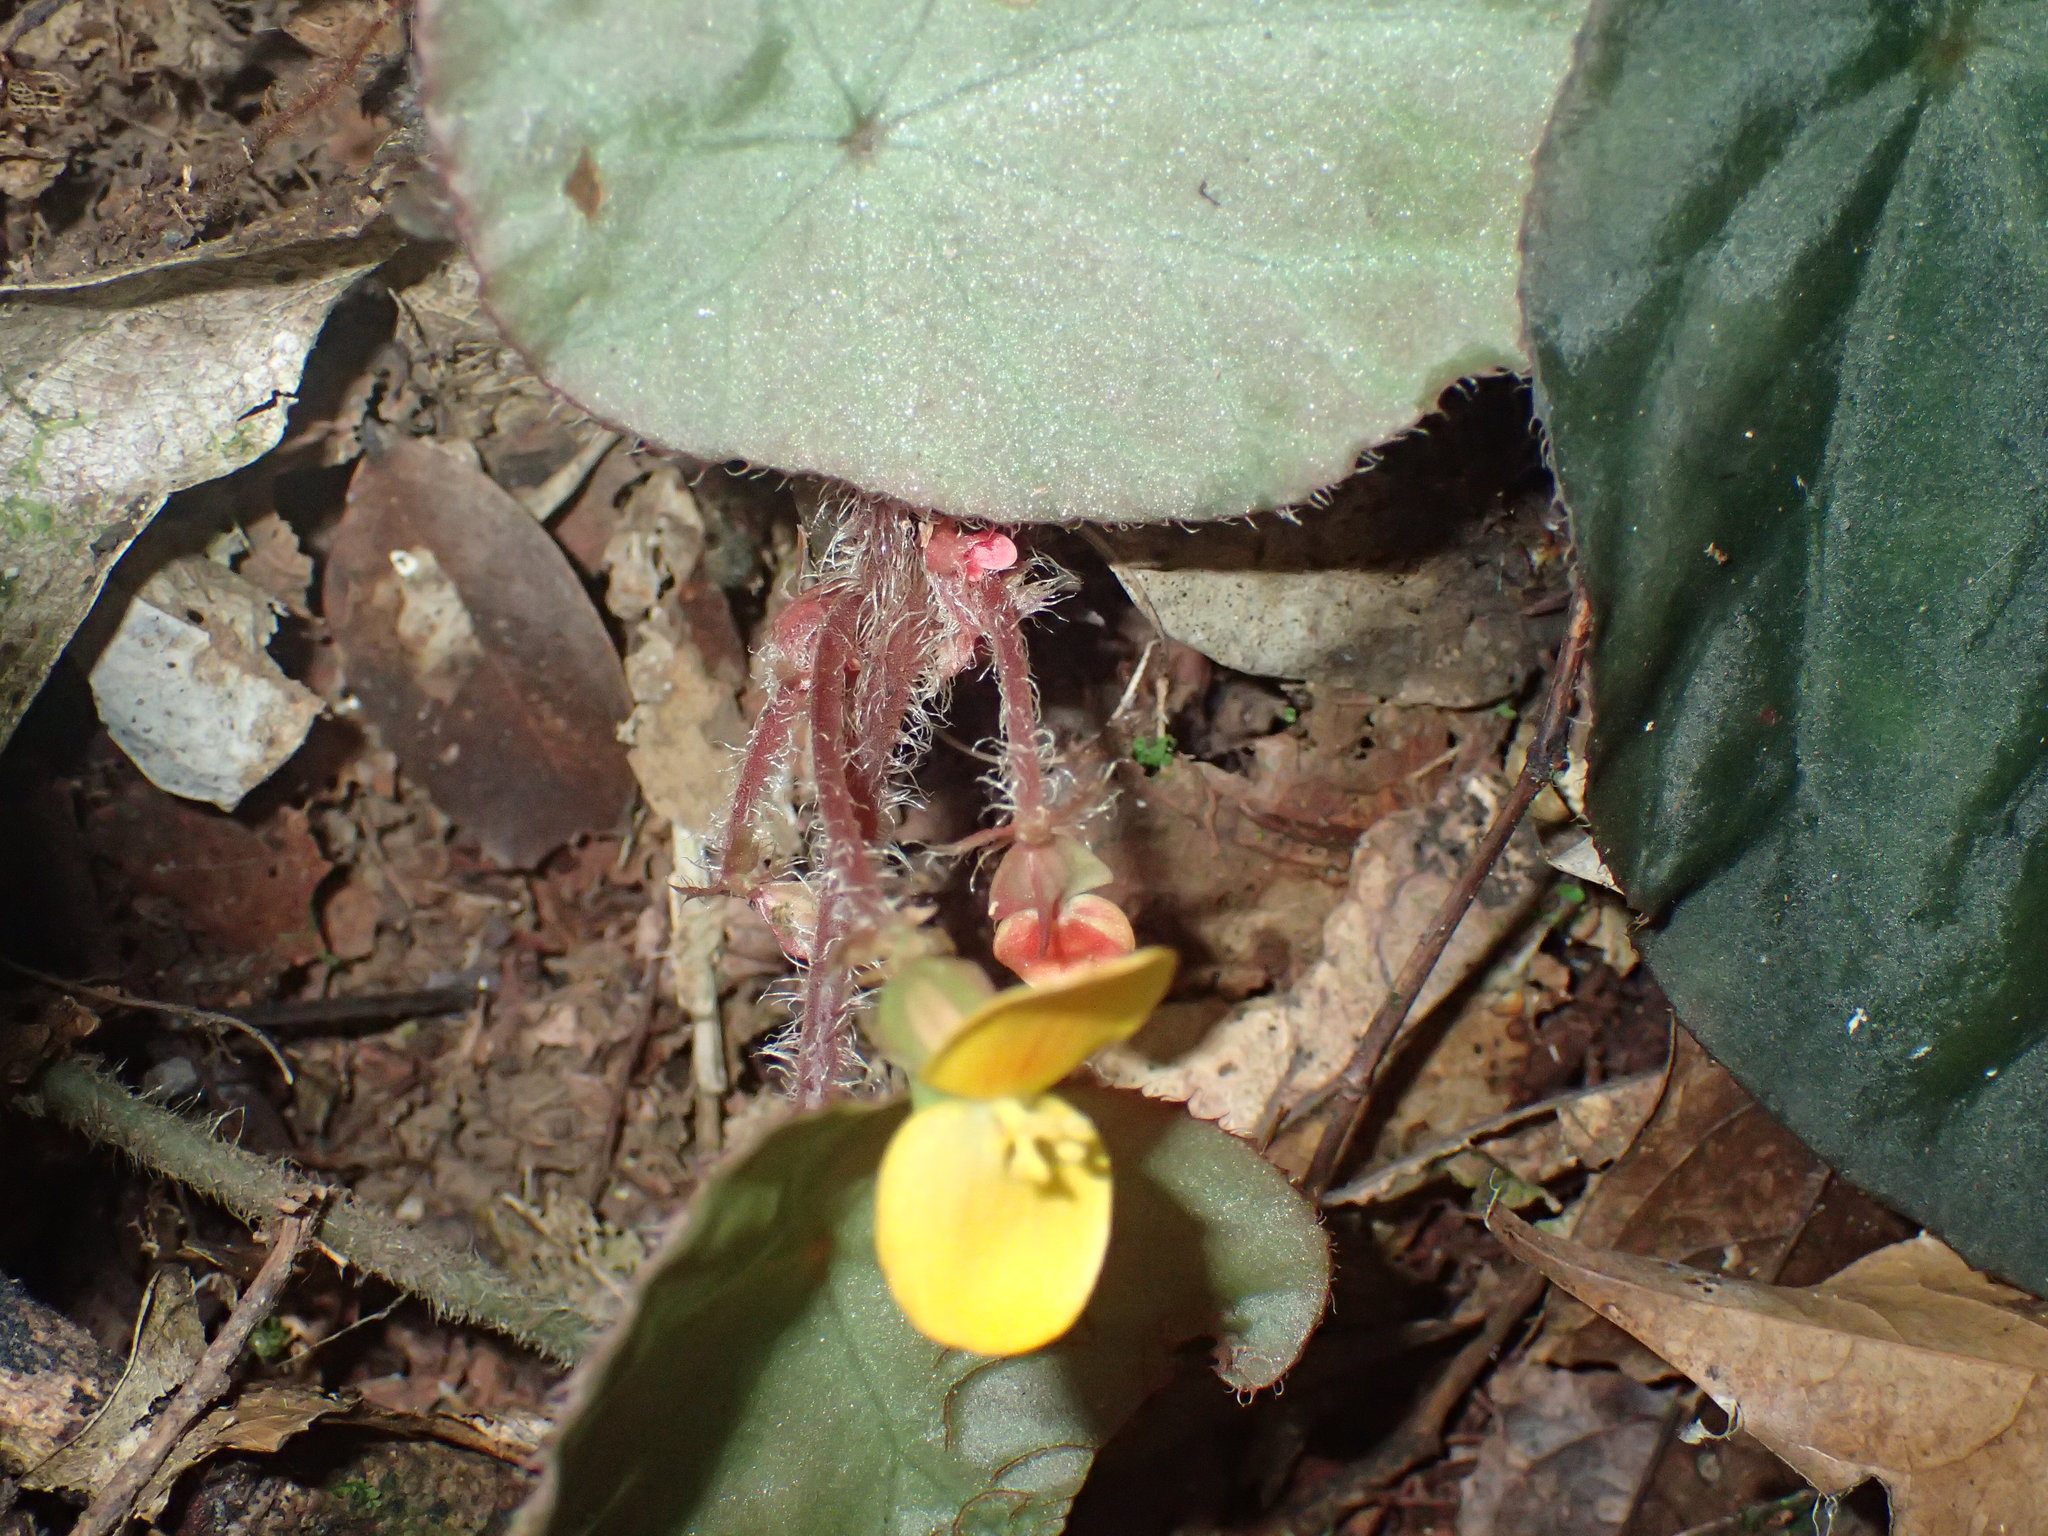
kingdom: Plantae
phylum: Tracheophyta
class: Magnoliopsida
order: Cucurbitales
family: Begoniaceae
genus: Begonia
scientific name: Begonia mildbraedii
